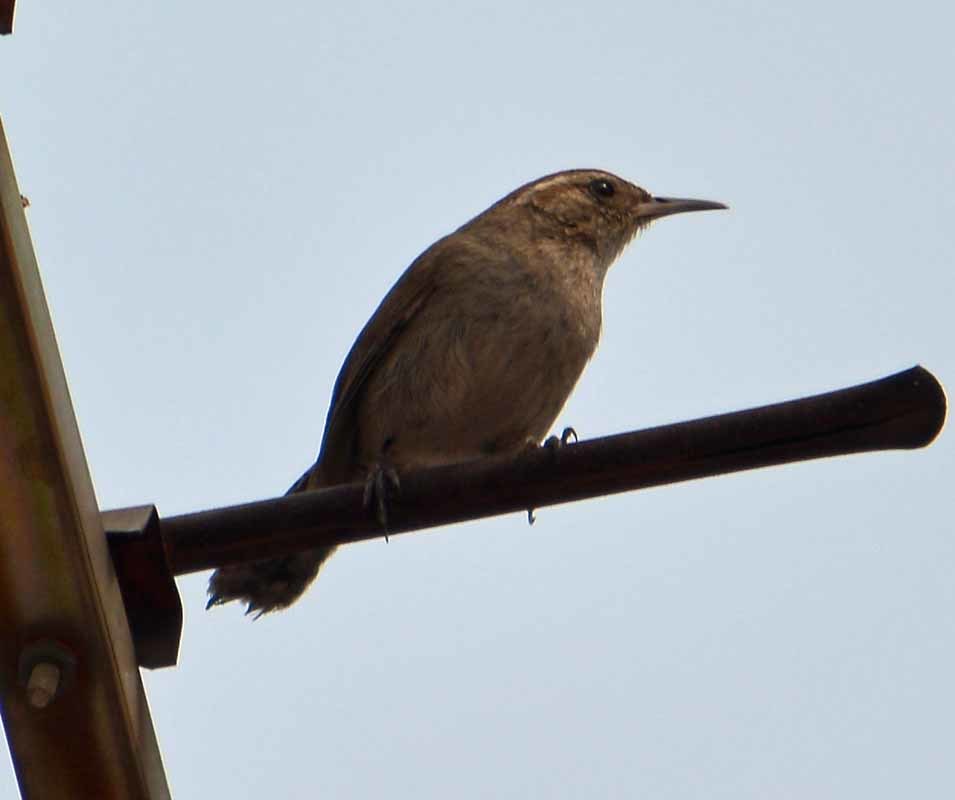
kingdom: Animalia
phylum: Chordata
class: Aves
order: Passeriformes
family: Troglodytidae
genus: Thryomanes
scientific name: Thryomanes bewickii
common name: Bewick's wren
